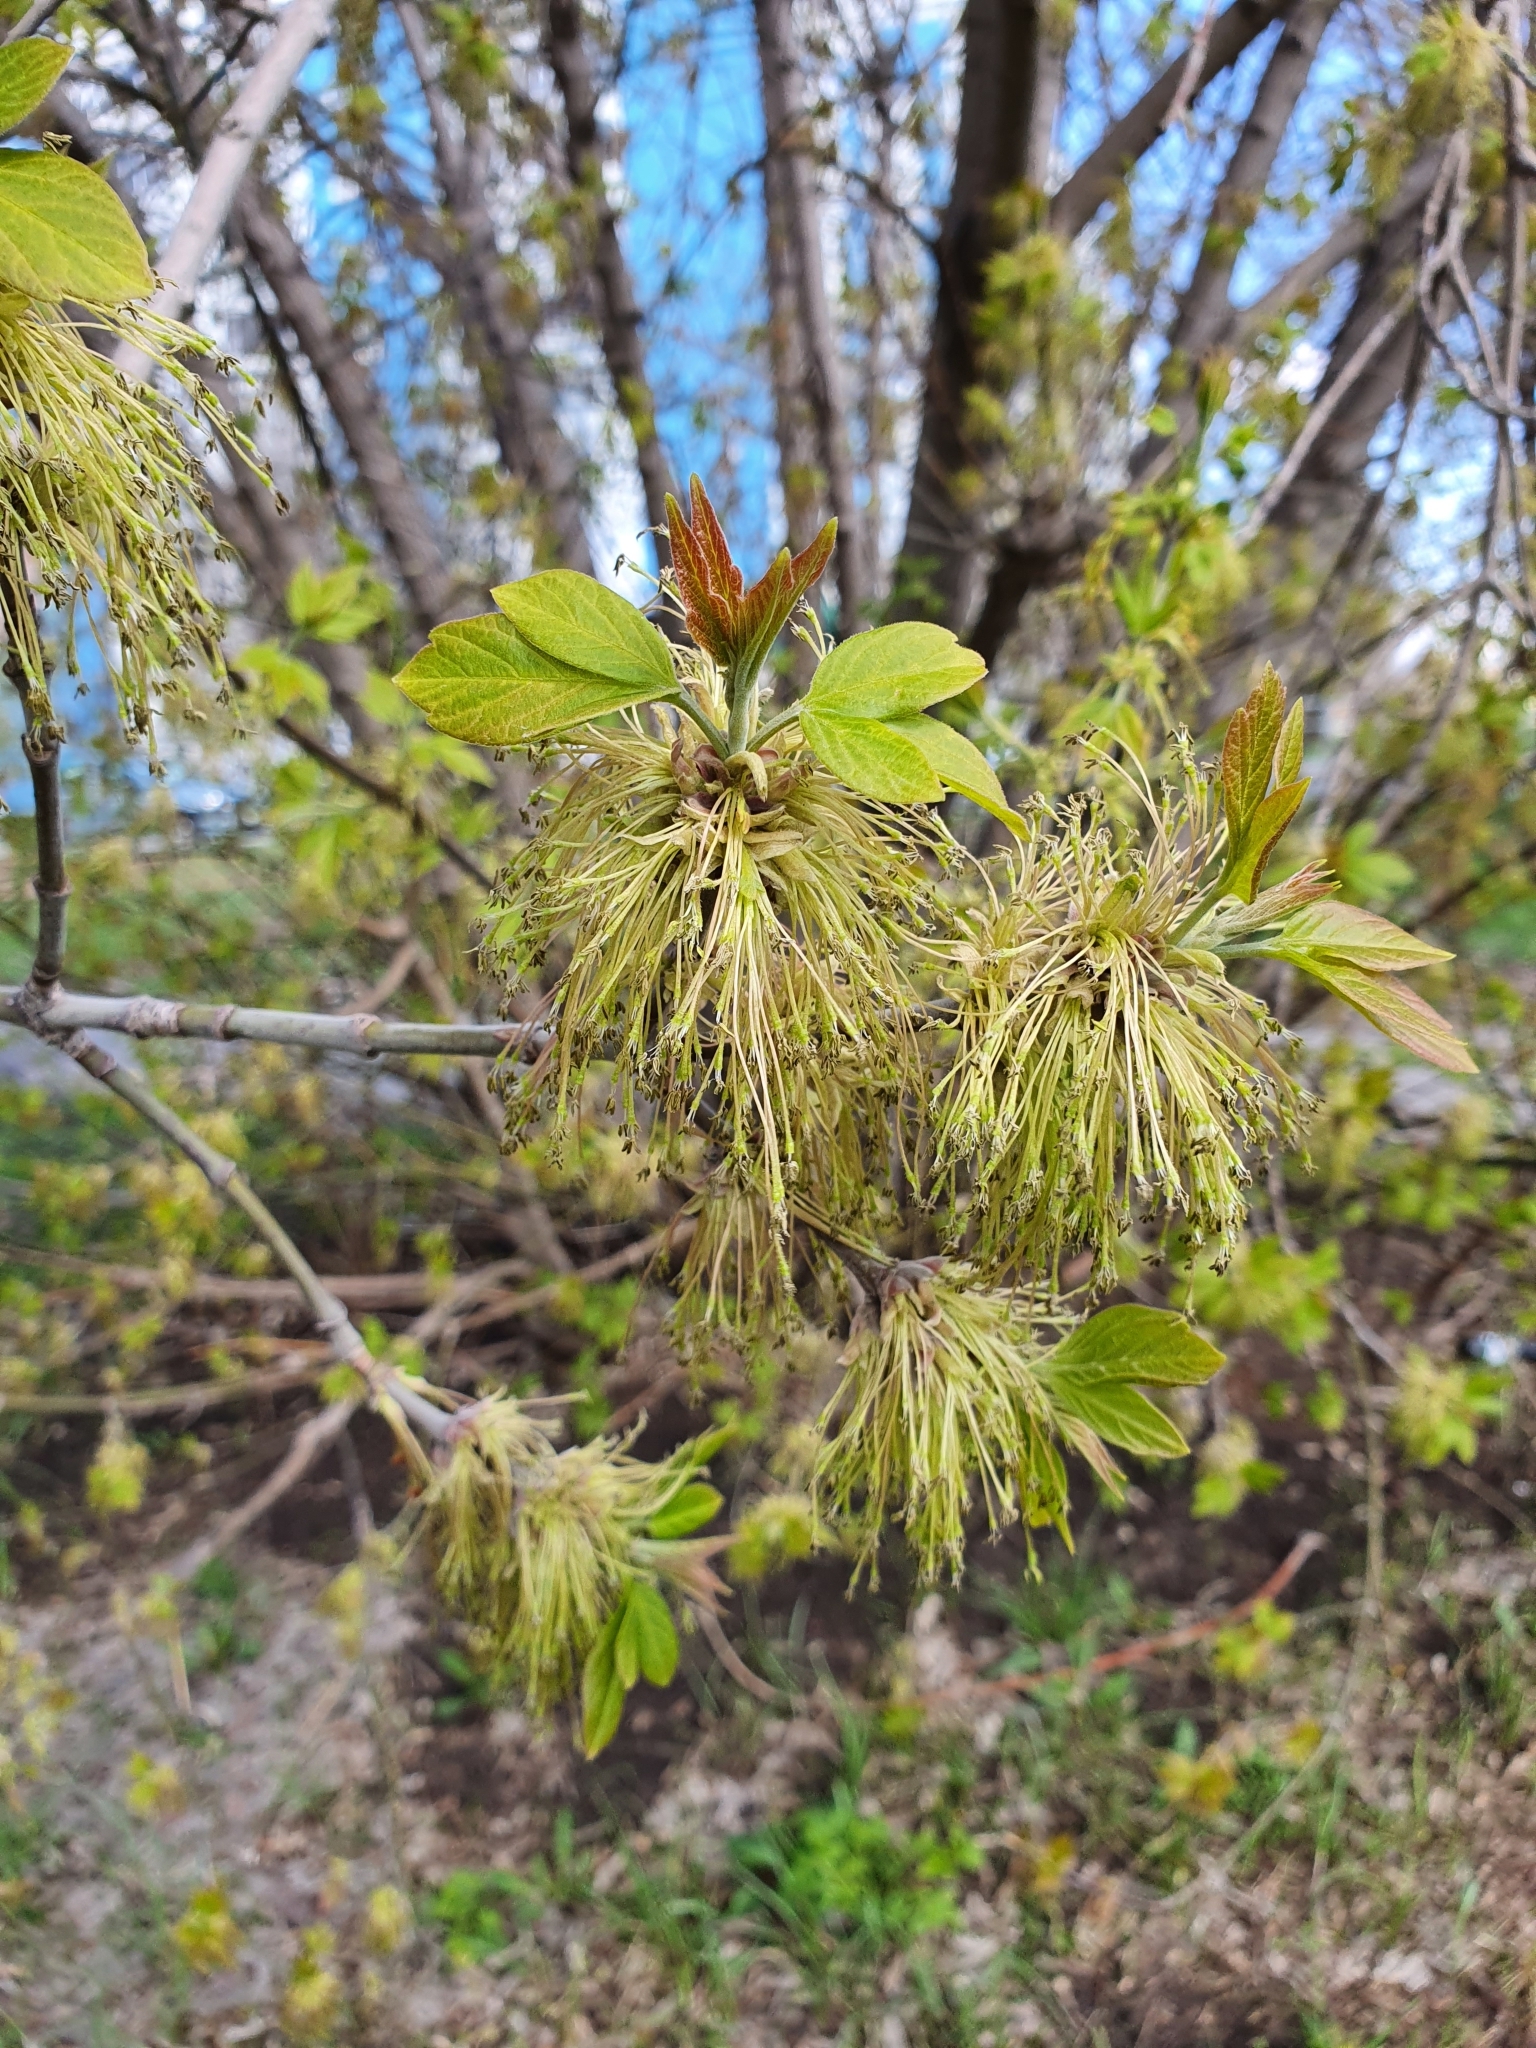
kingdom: Plantae
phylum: Tracheophyta
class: Magnoliopsida
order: Sapindales
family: Sapindaceae
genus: Acer
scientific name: Acer negundo
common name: Ashleaf maple
